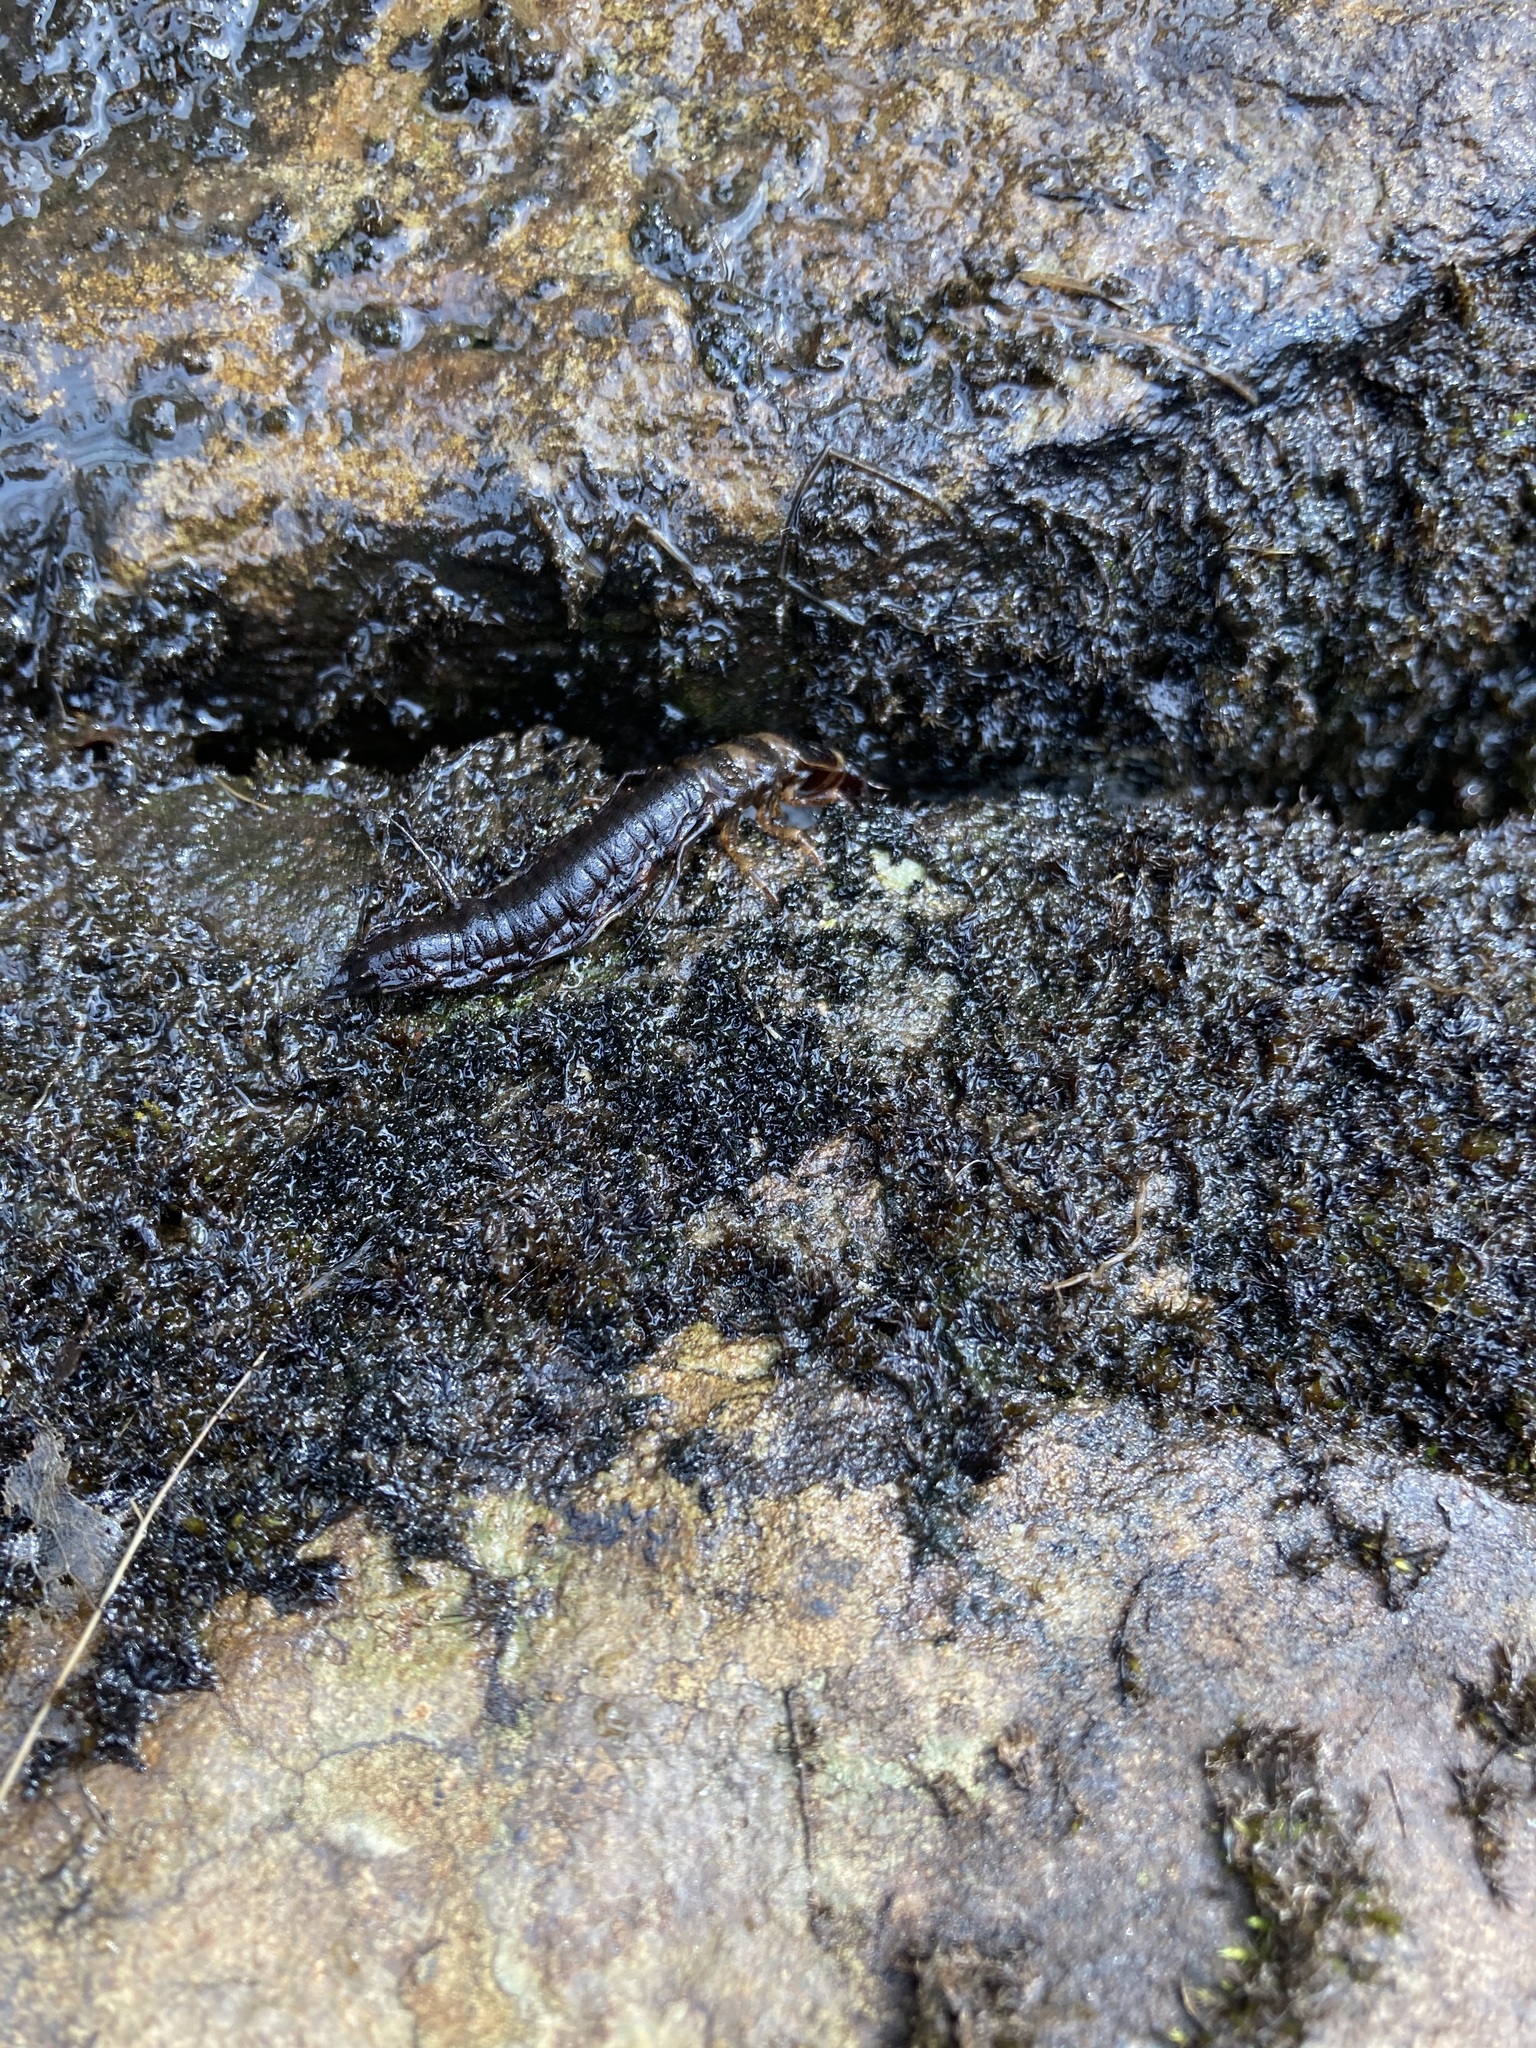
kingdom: Animalia
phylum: Arthropoda
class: Insecta
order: Megaloptera
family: Corydalidae
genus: Nigronia
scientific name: Nigronia serricornis
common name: Serrate dark fishfly
